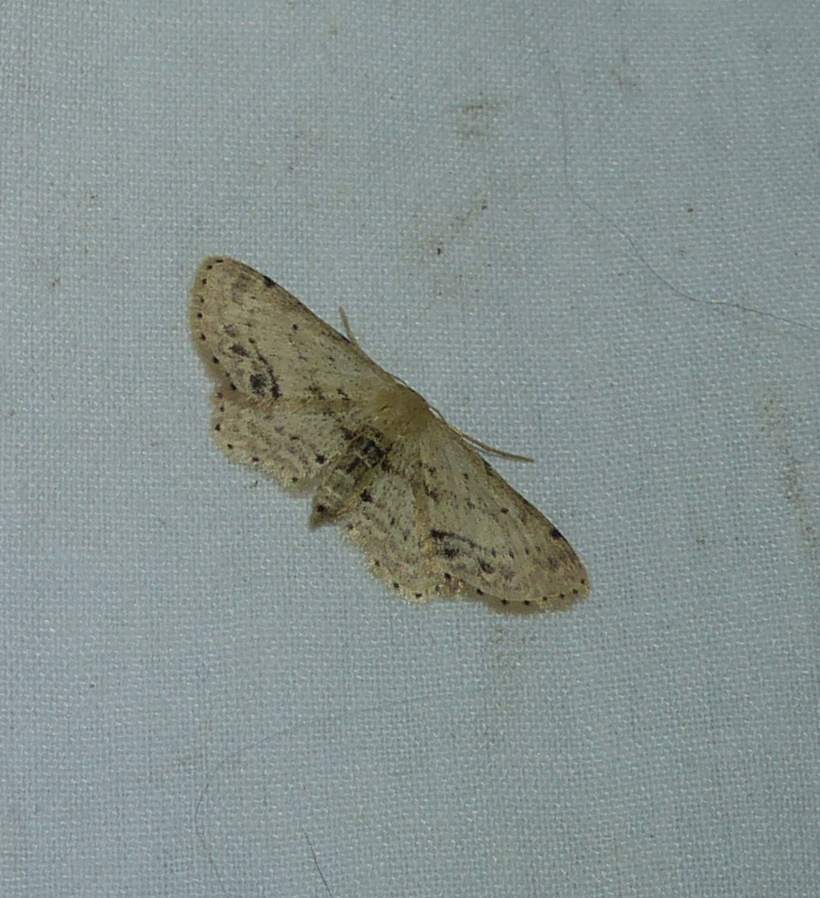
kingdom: Animalia
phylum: Arthropoda
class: Insecta
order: Lepidoptera
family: Geometridae
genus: Idaea
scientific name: Idaea dimidiata
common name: Single-dotted wave
